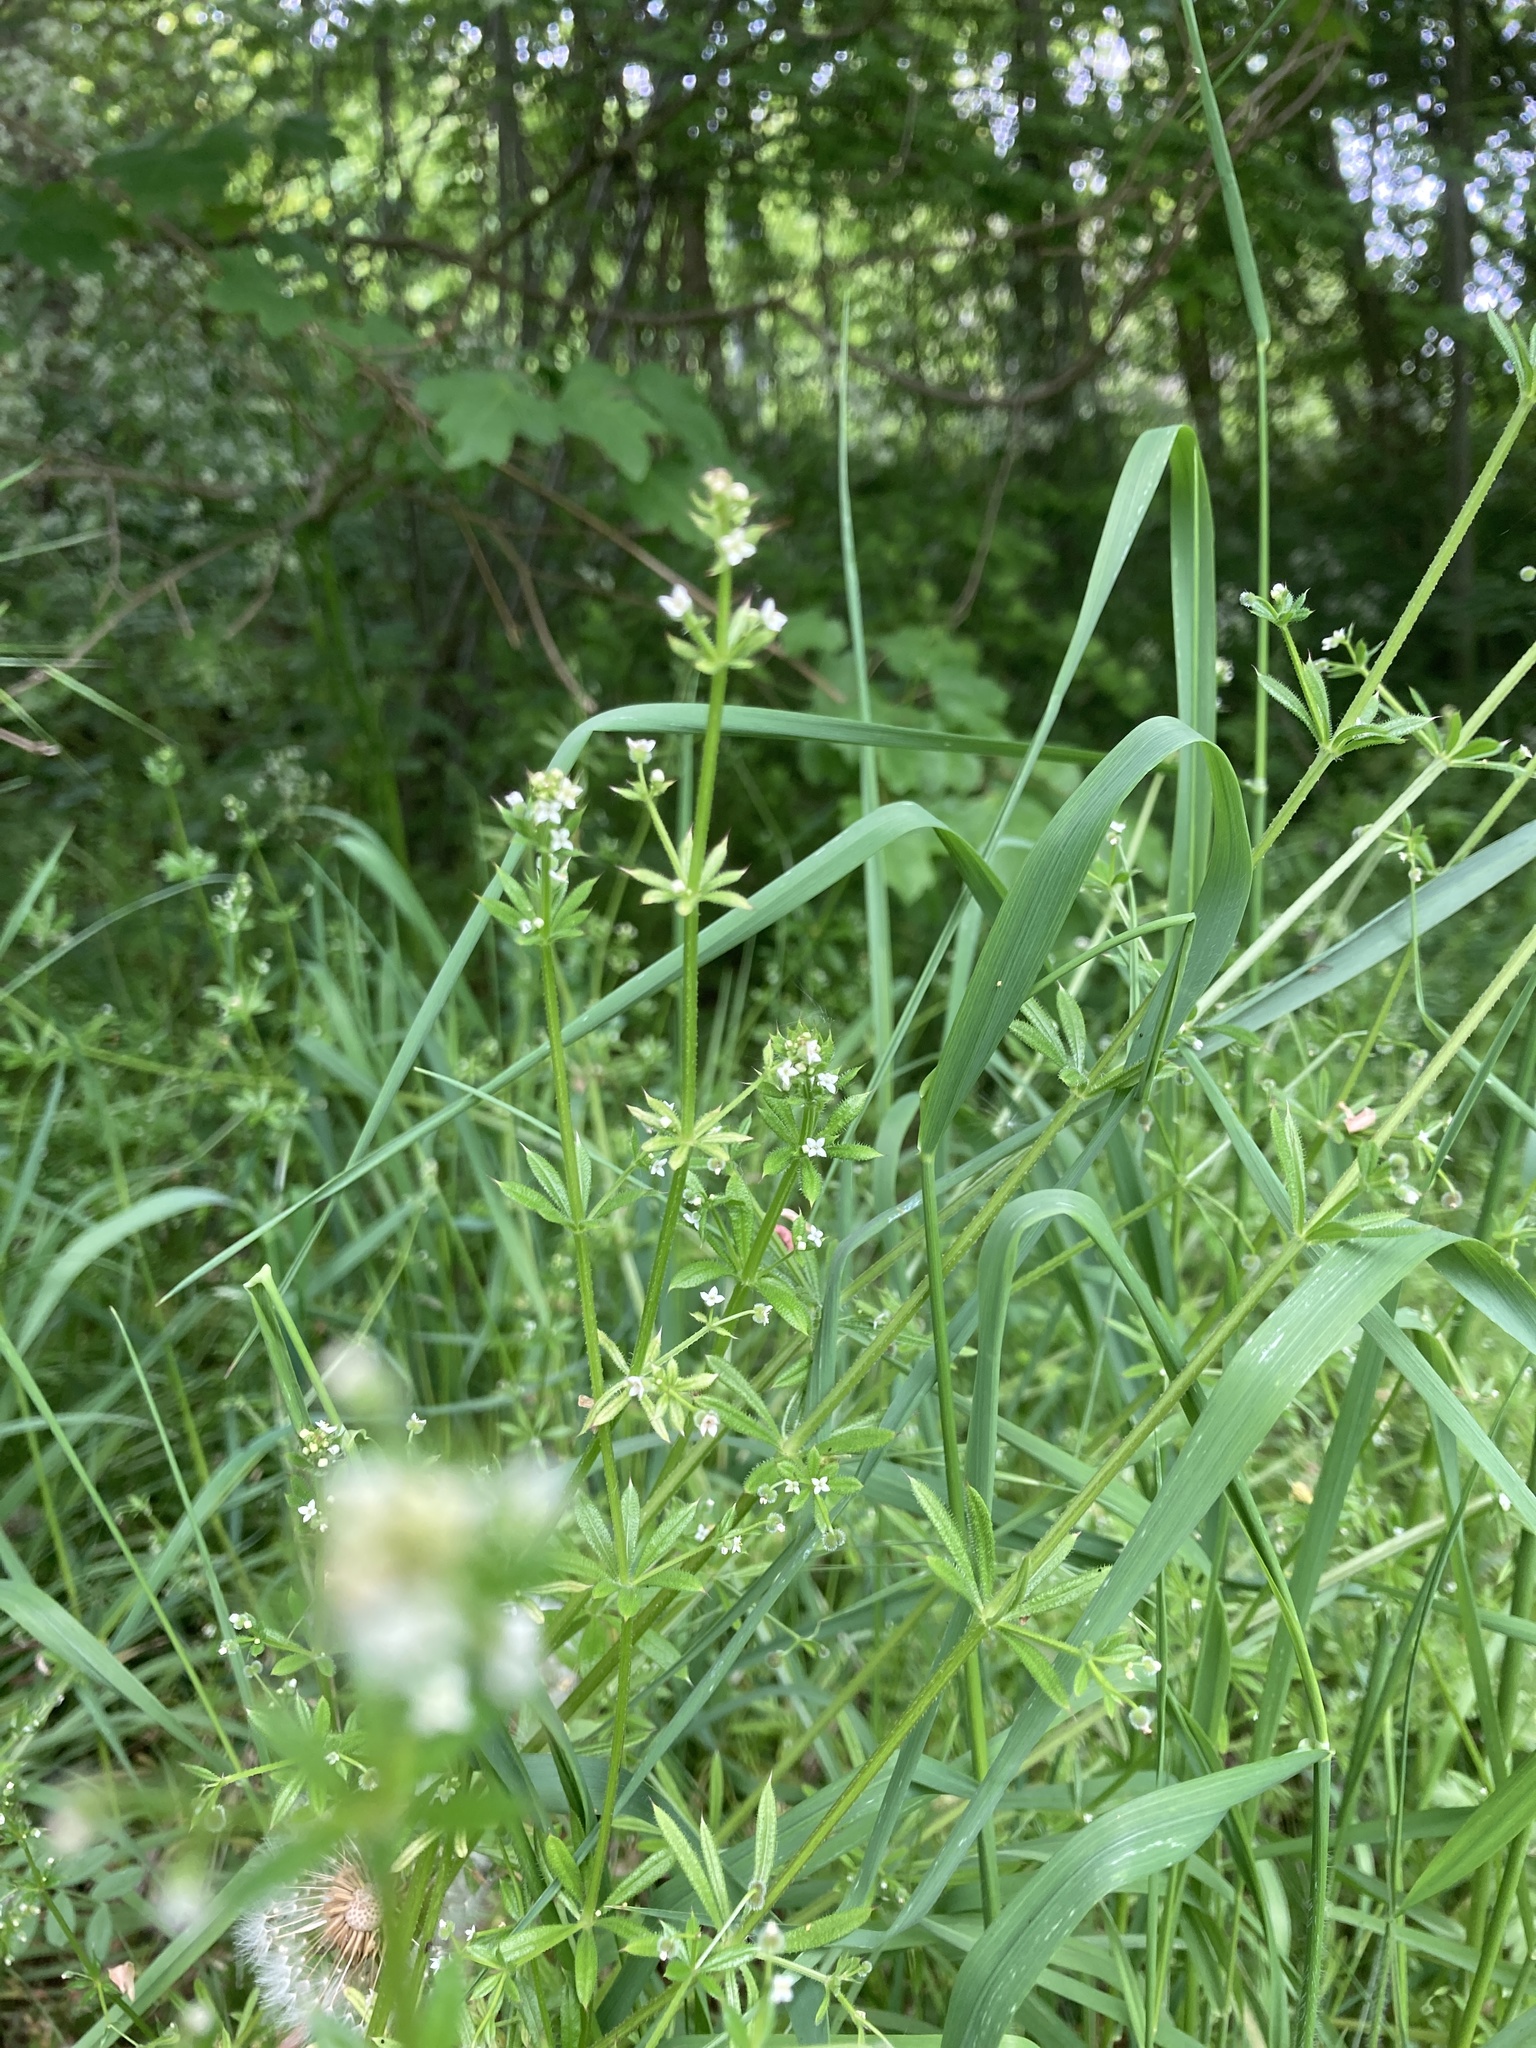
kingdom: Plantae
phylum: Tracheophyta
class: Magnoliopsida
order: Gentianales
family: Rubiaceae
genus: Galium
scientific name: Galium aparine
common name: Cleavers
